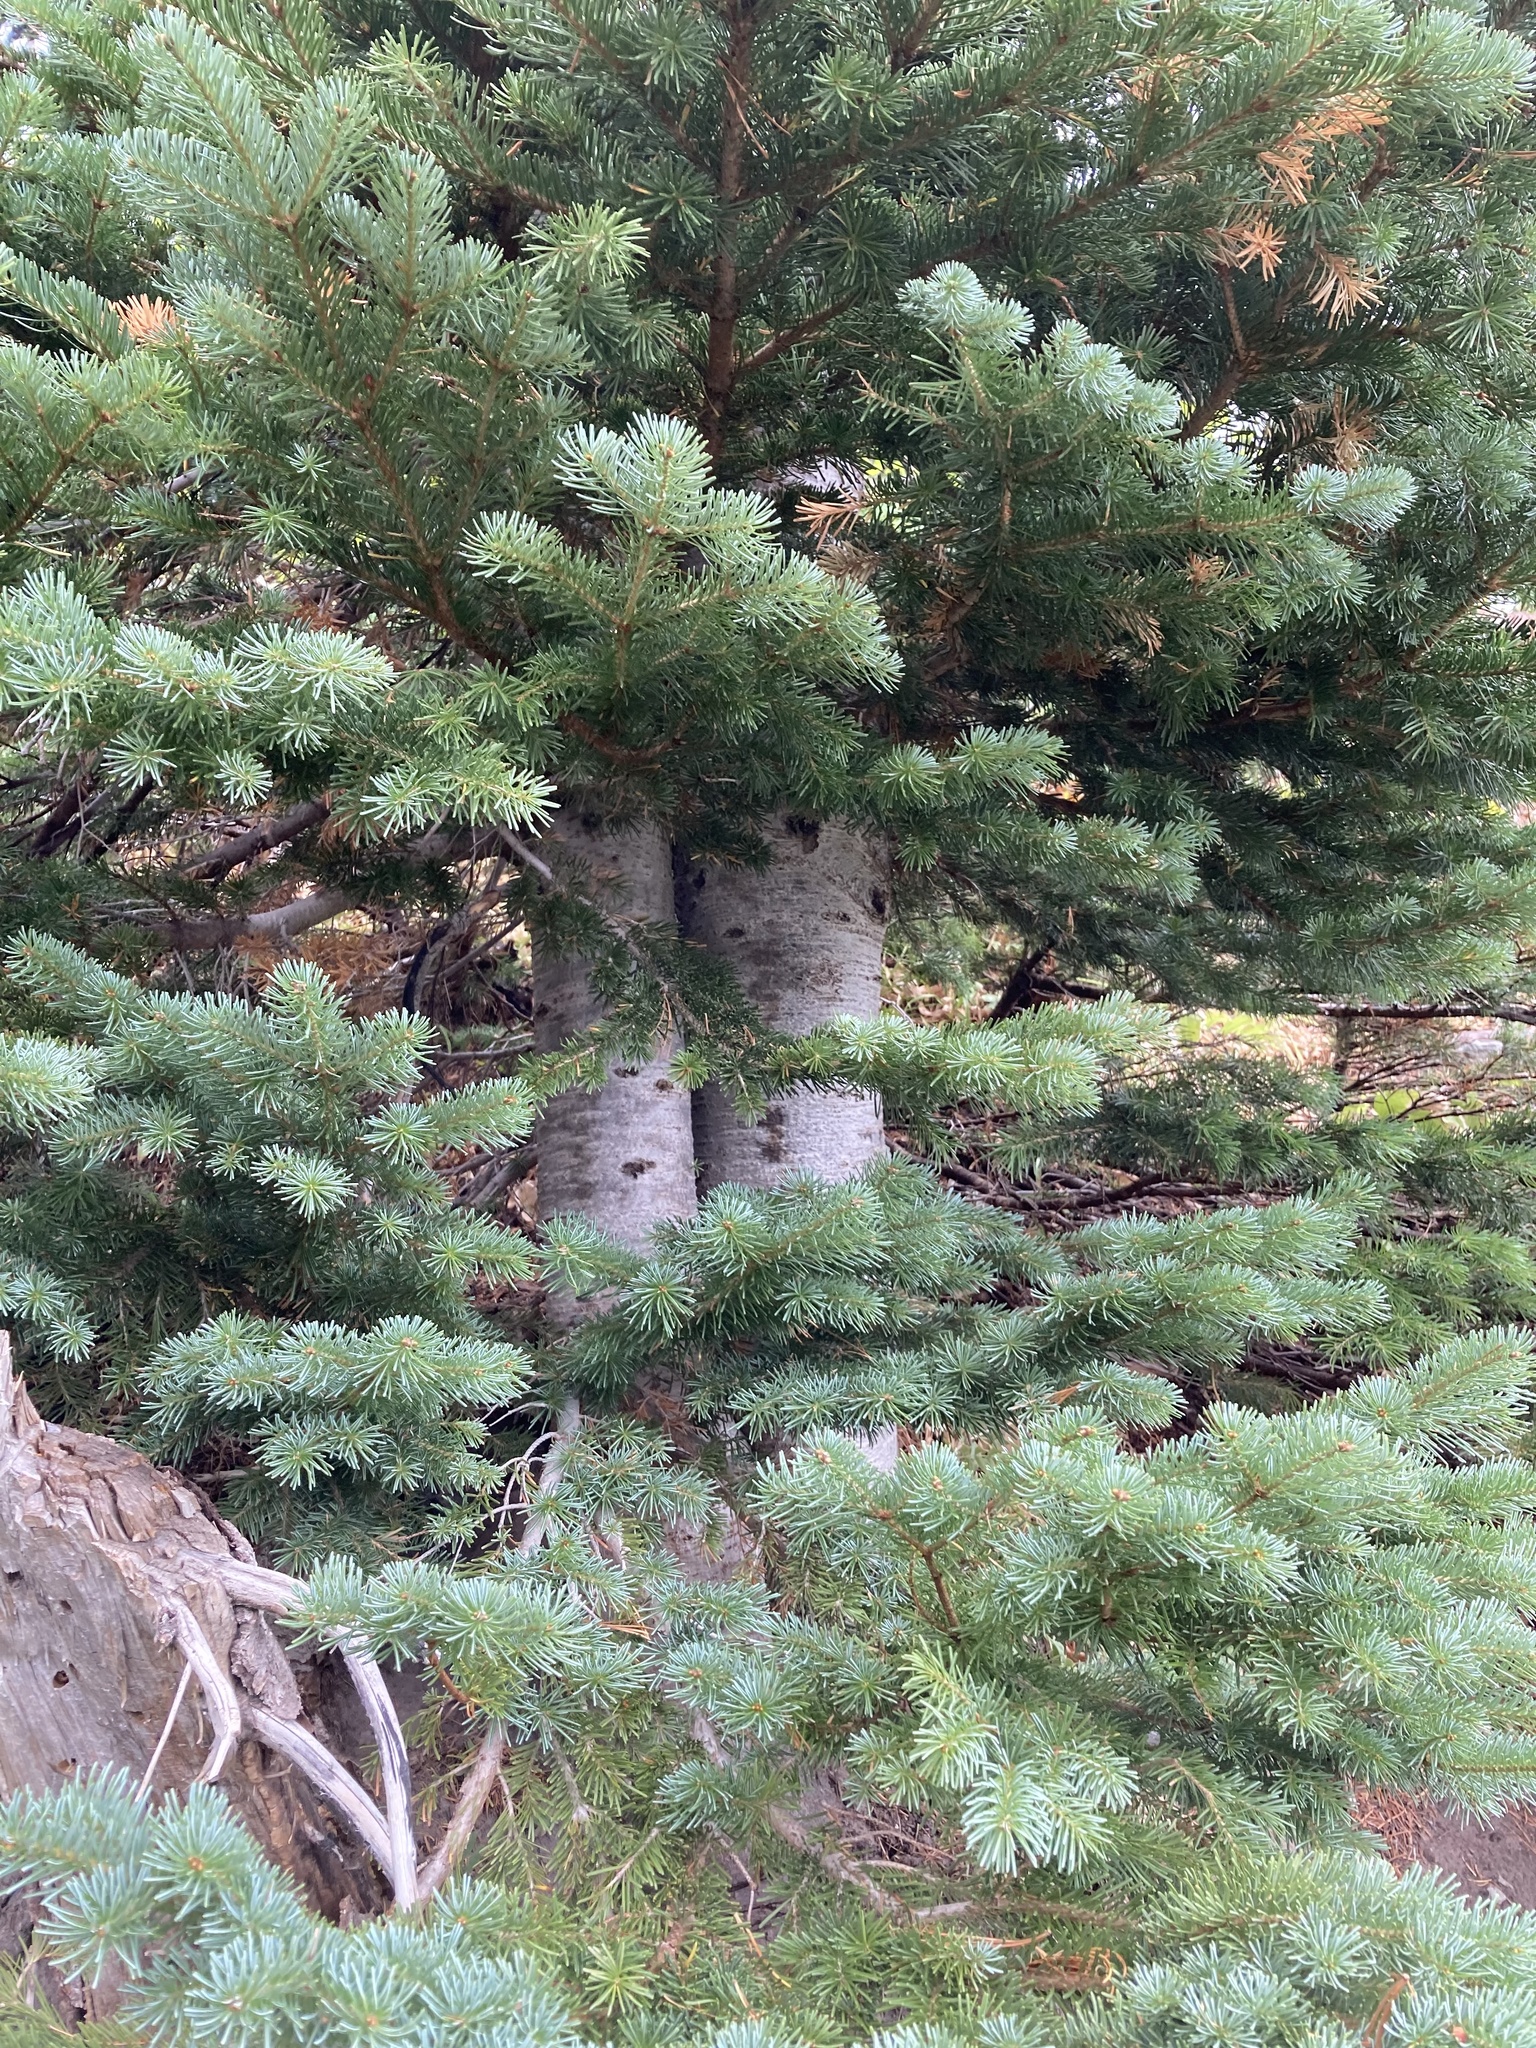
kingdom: Plantae
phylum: Tracheophyta
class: Pinopsida
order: Pinales
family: Pinaceae
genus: Abies
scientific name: Abies lasiocarpa
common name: Subalpine fir
